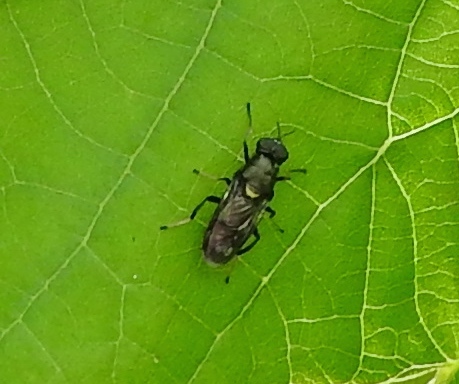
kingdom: Animalia
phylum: Arthropoda
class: Insecta
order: Diptera
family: Stratiomyidae
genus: Myxosargus
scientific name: Myxosargus
